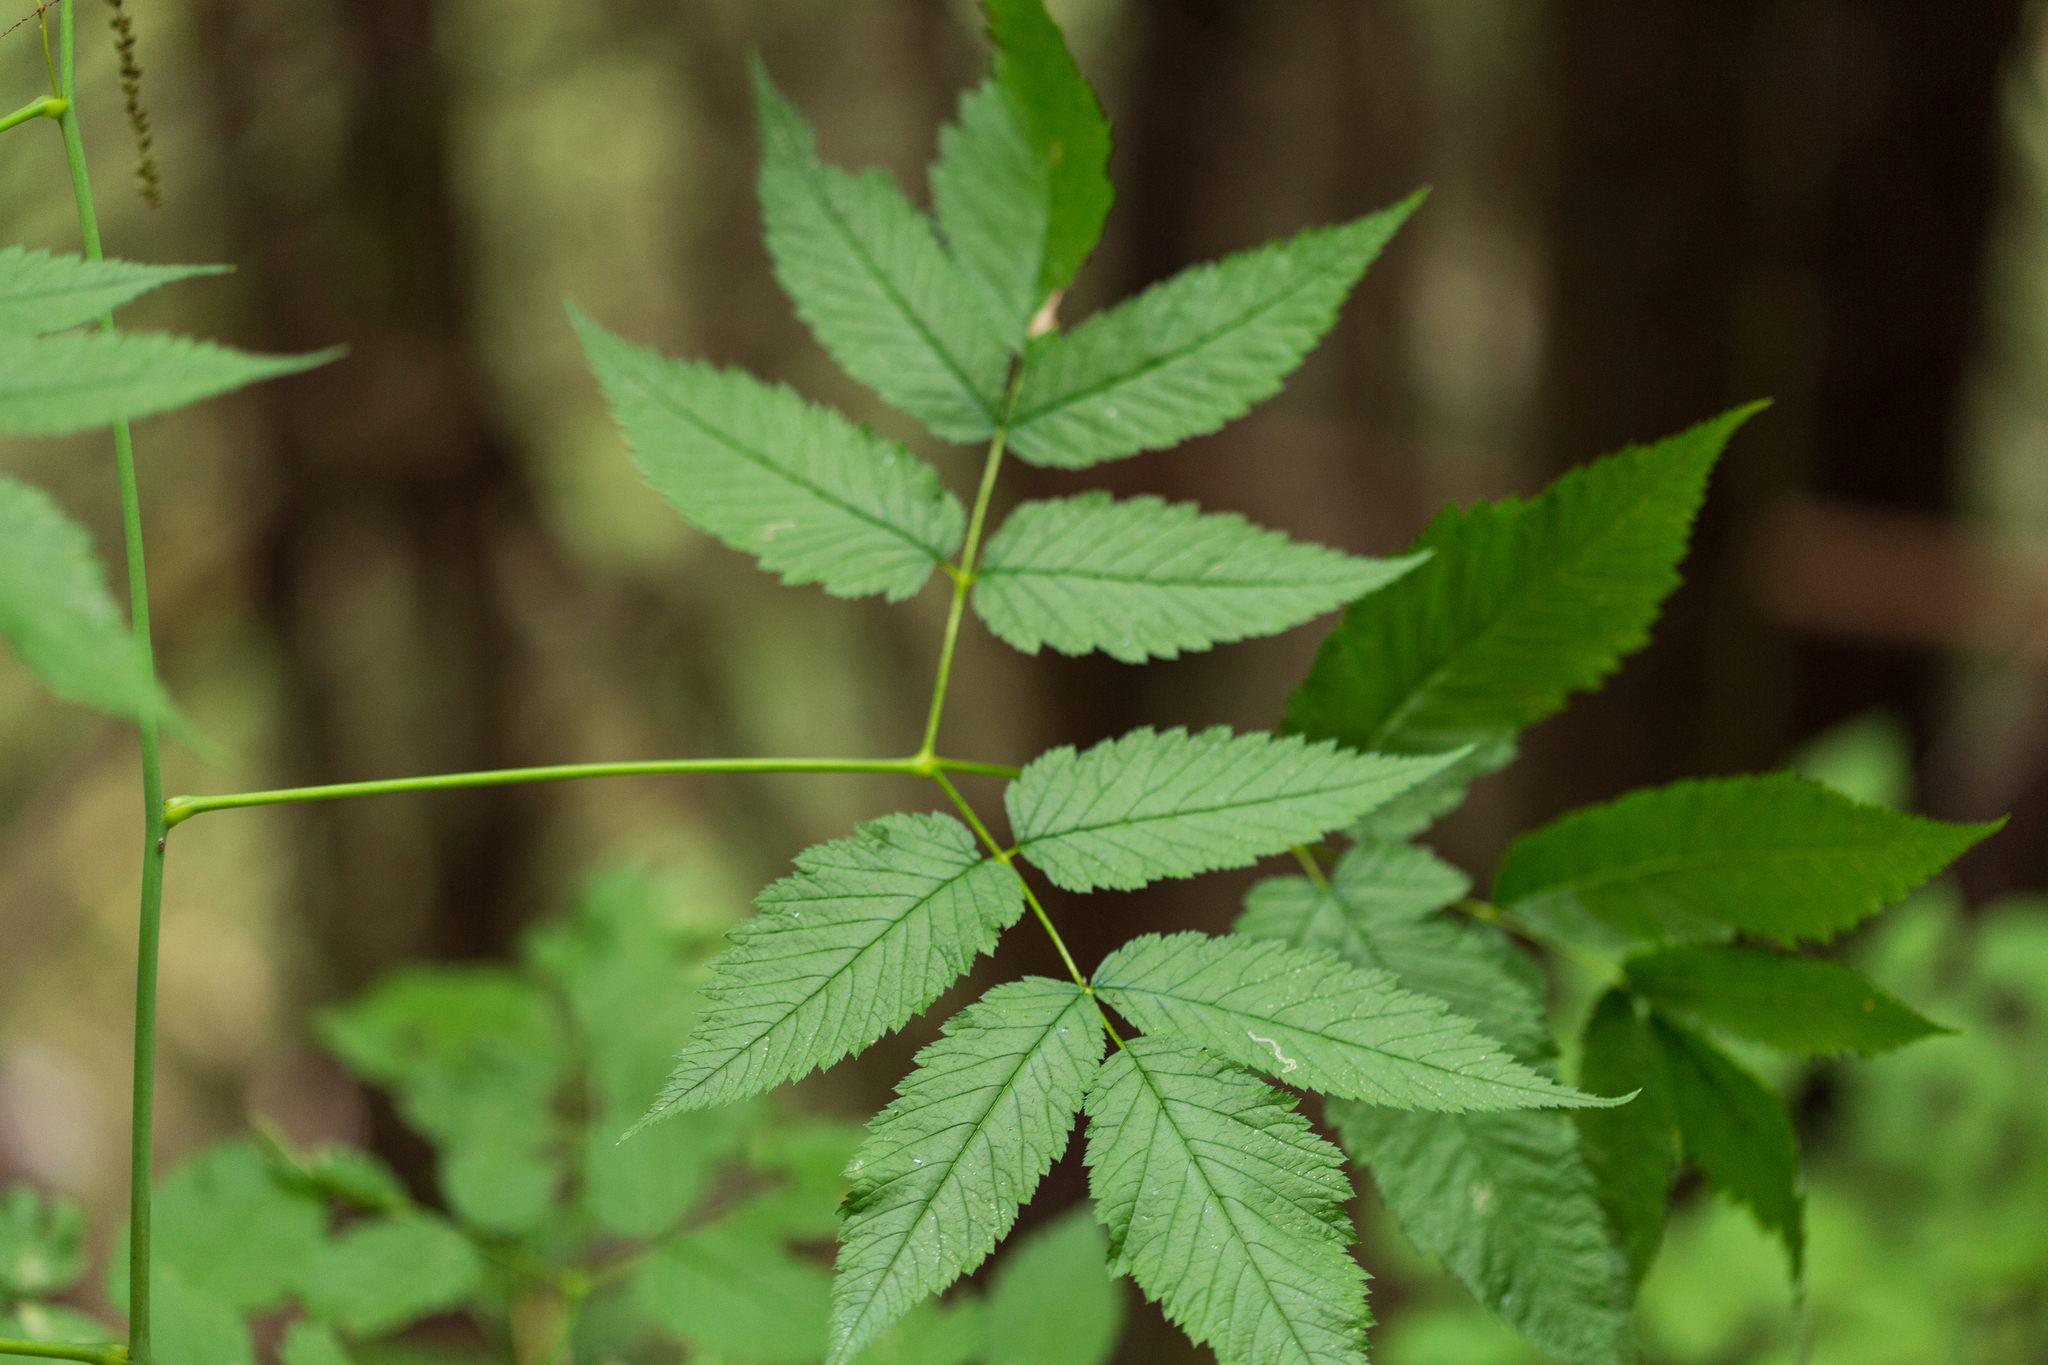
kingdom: Plantae
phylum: Tracheophyta
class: Magnoliopsida
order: Rosales
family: Rosaceae
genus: Aruncus
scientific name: Aruncus dioicus
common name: Buck's-beard
